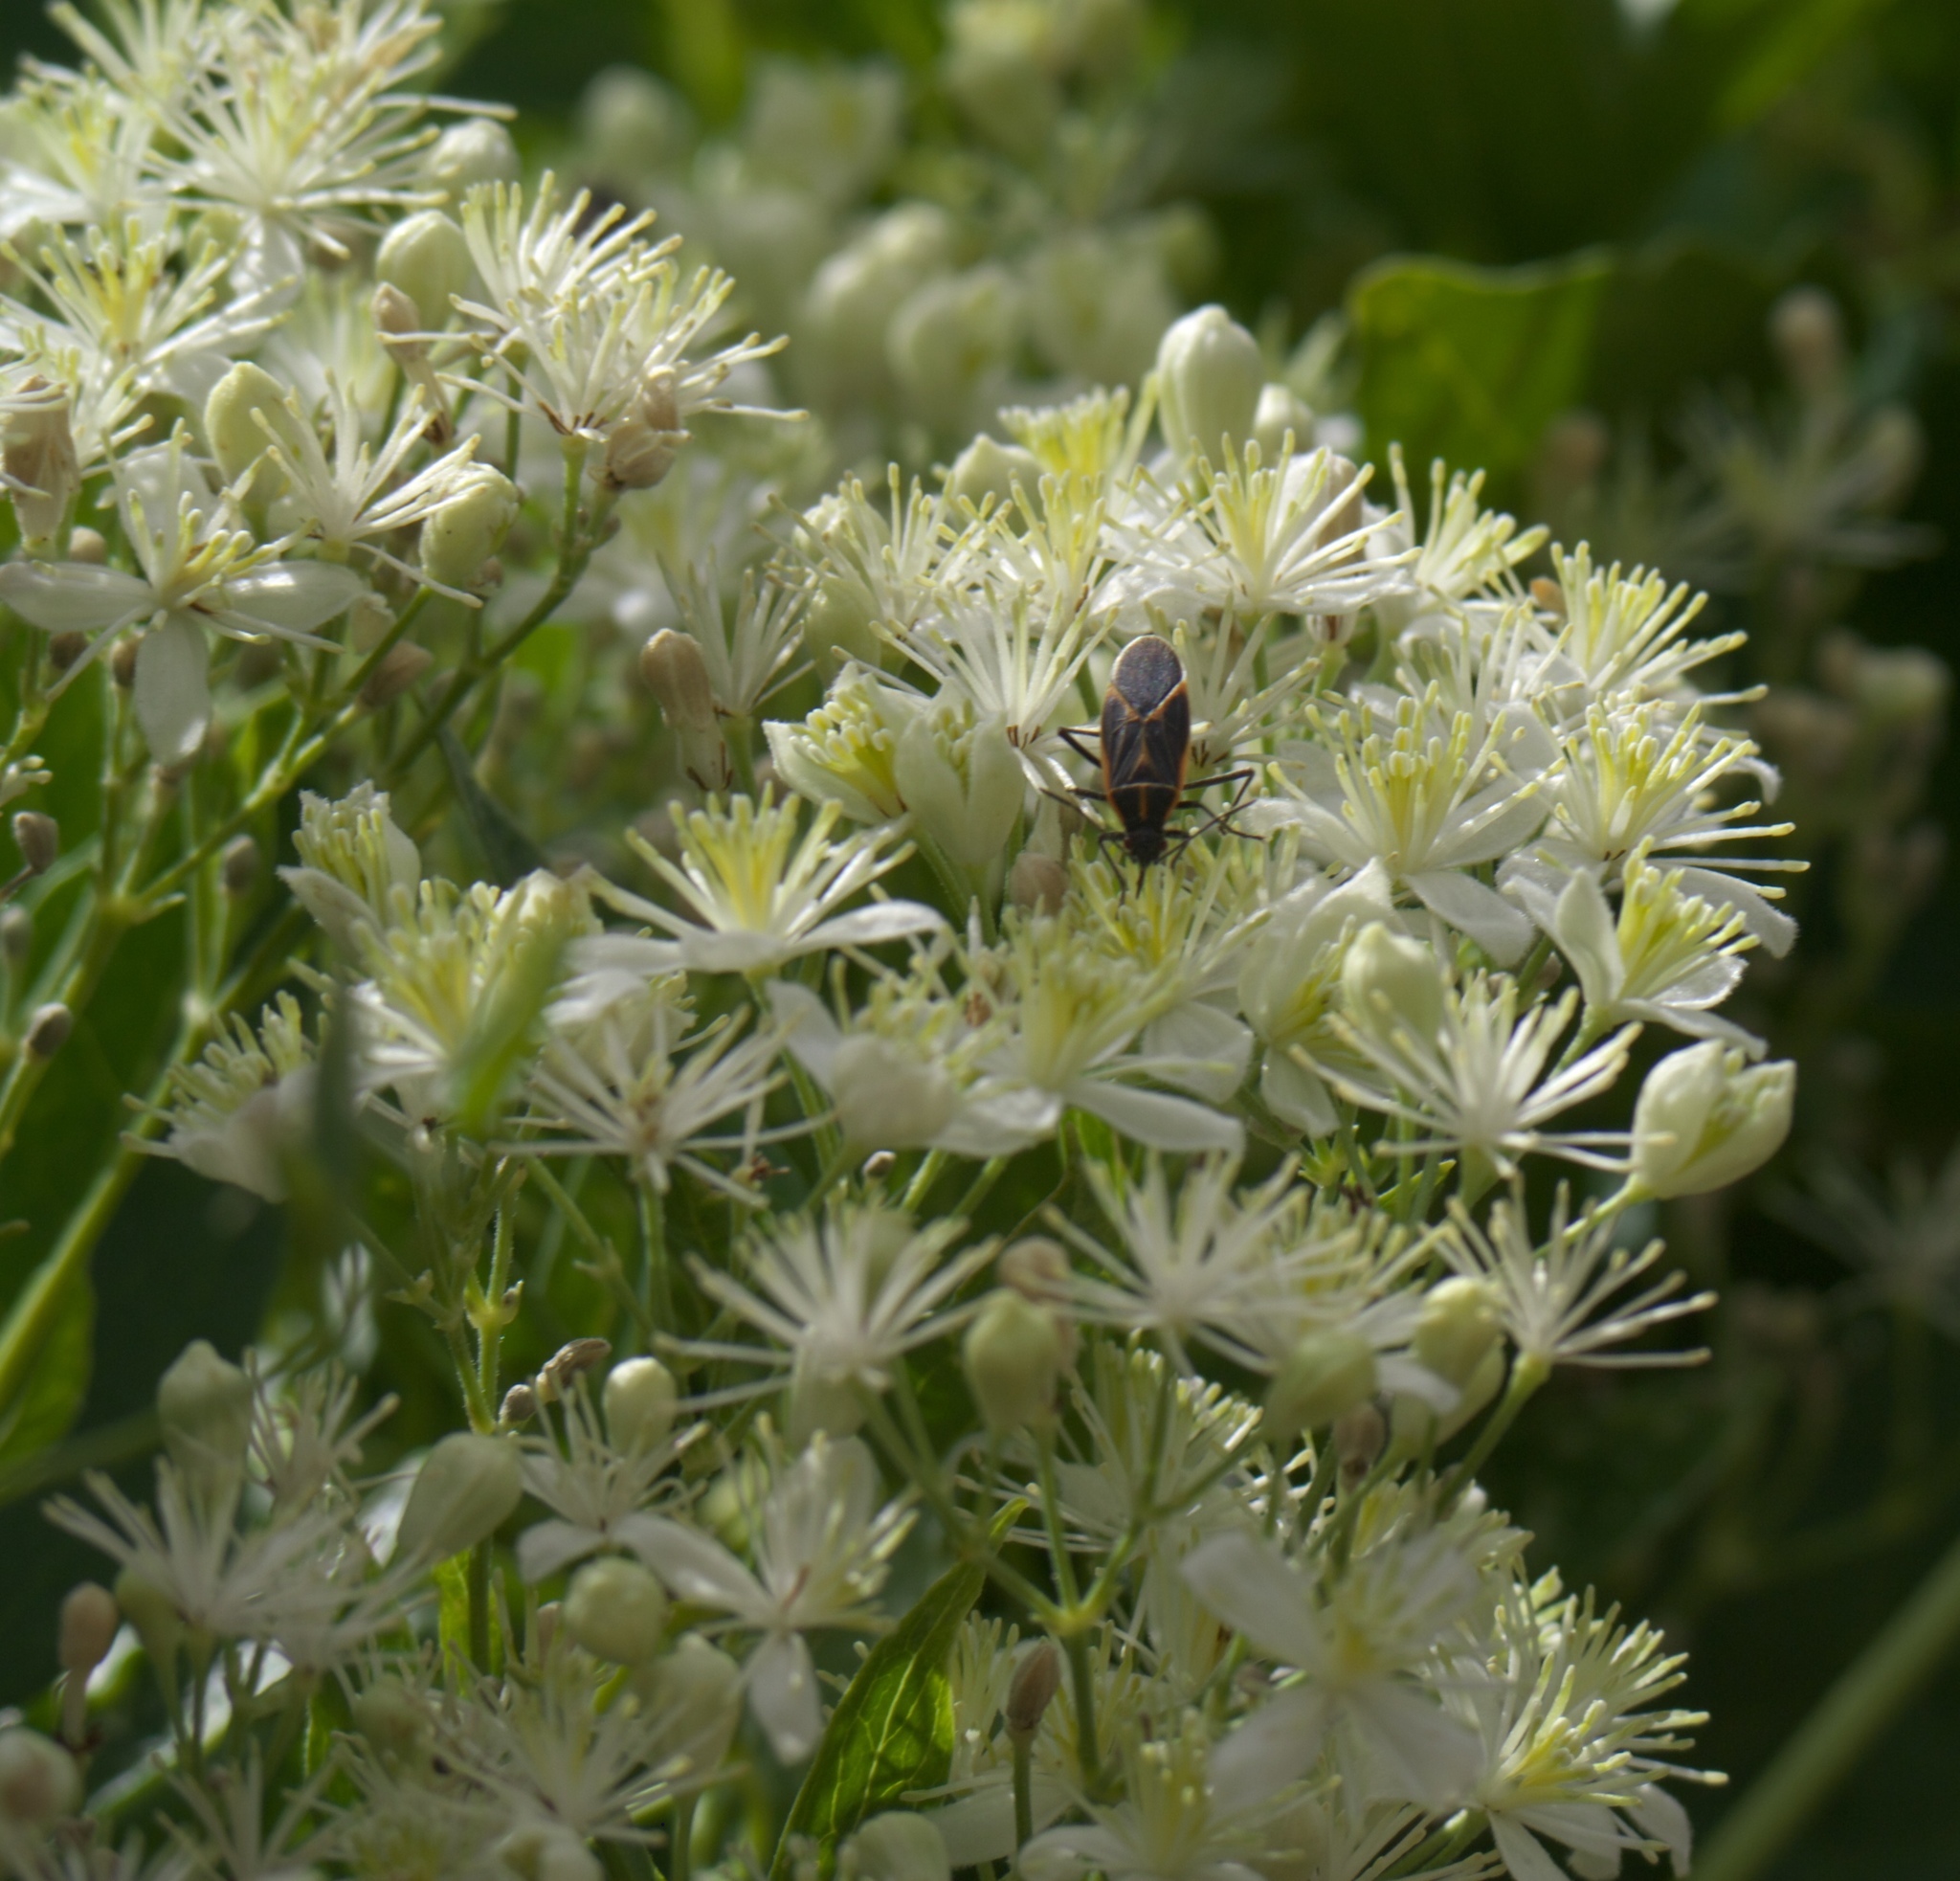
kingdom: Plantae
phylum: Tracheophyta
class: Magnoliopsida
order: Ranunculales
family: Ranunculaceae
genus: Clematis
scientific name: Clematis ligusticifolia
